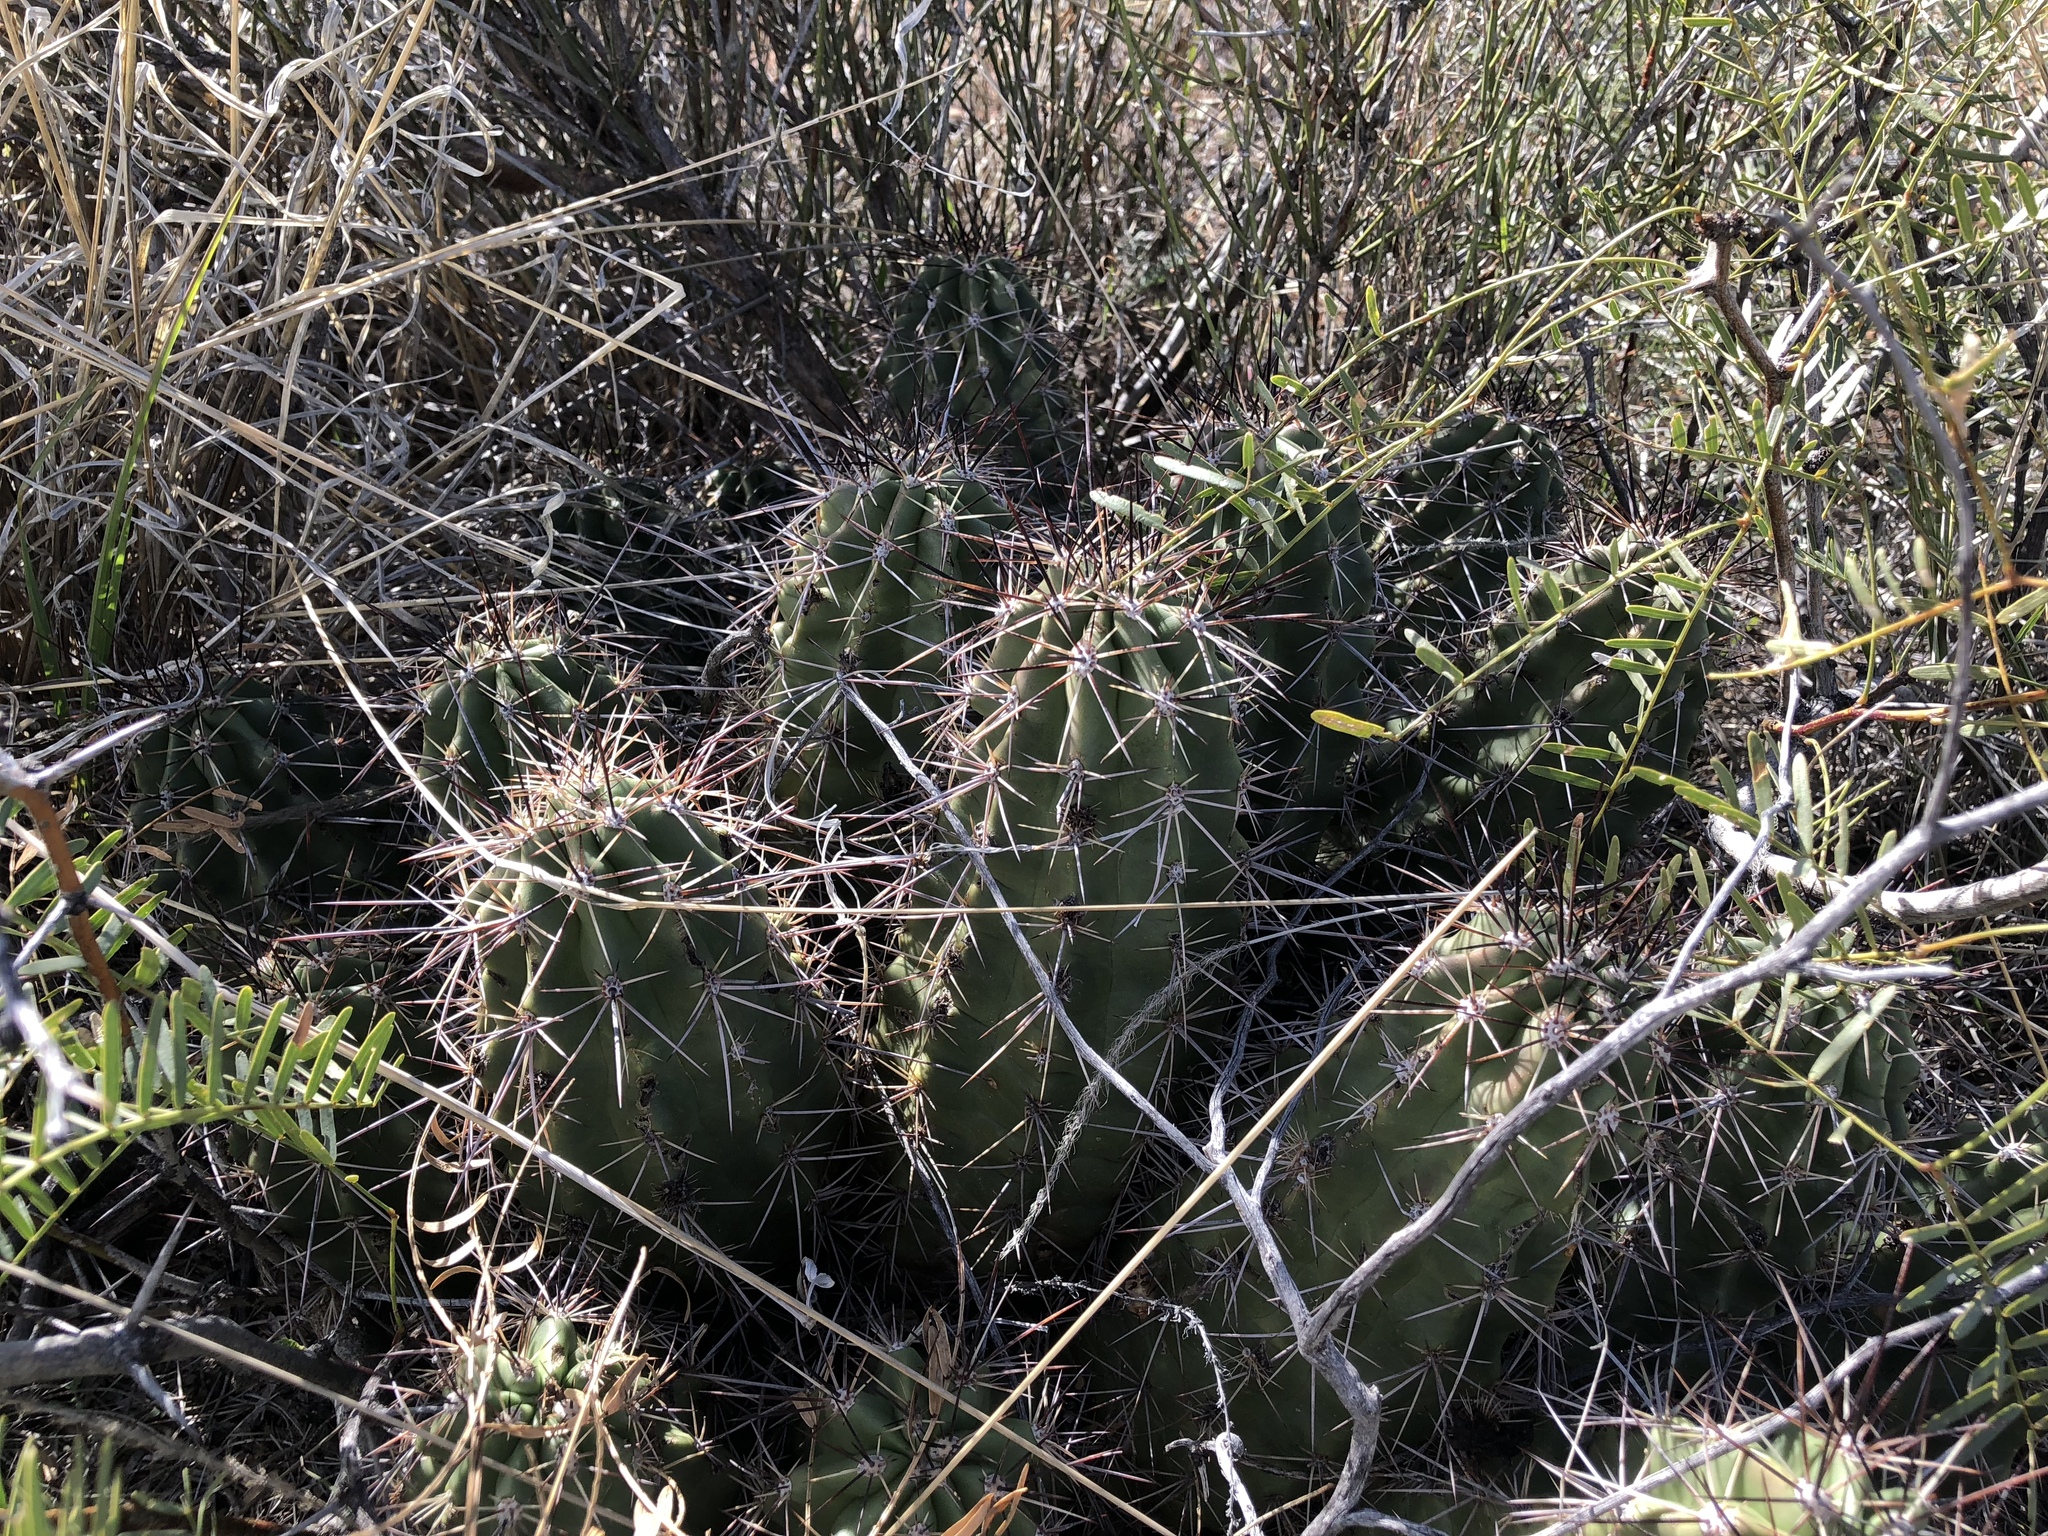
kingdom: Plantae
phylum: Tracheophyta
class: Magnoliopsida
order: Caryophyllales
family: Cactaceae
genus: Echinocereus
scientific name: Echinocereus coccineus
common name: Scarlet hedgehog cactus
